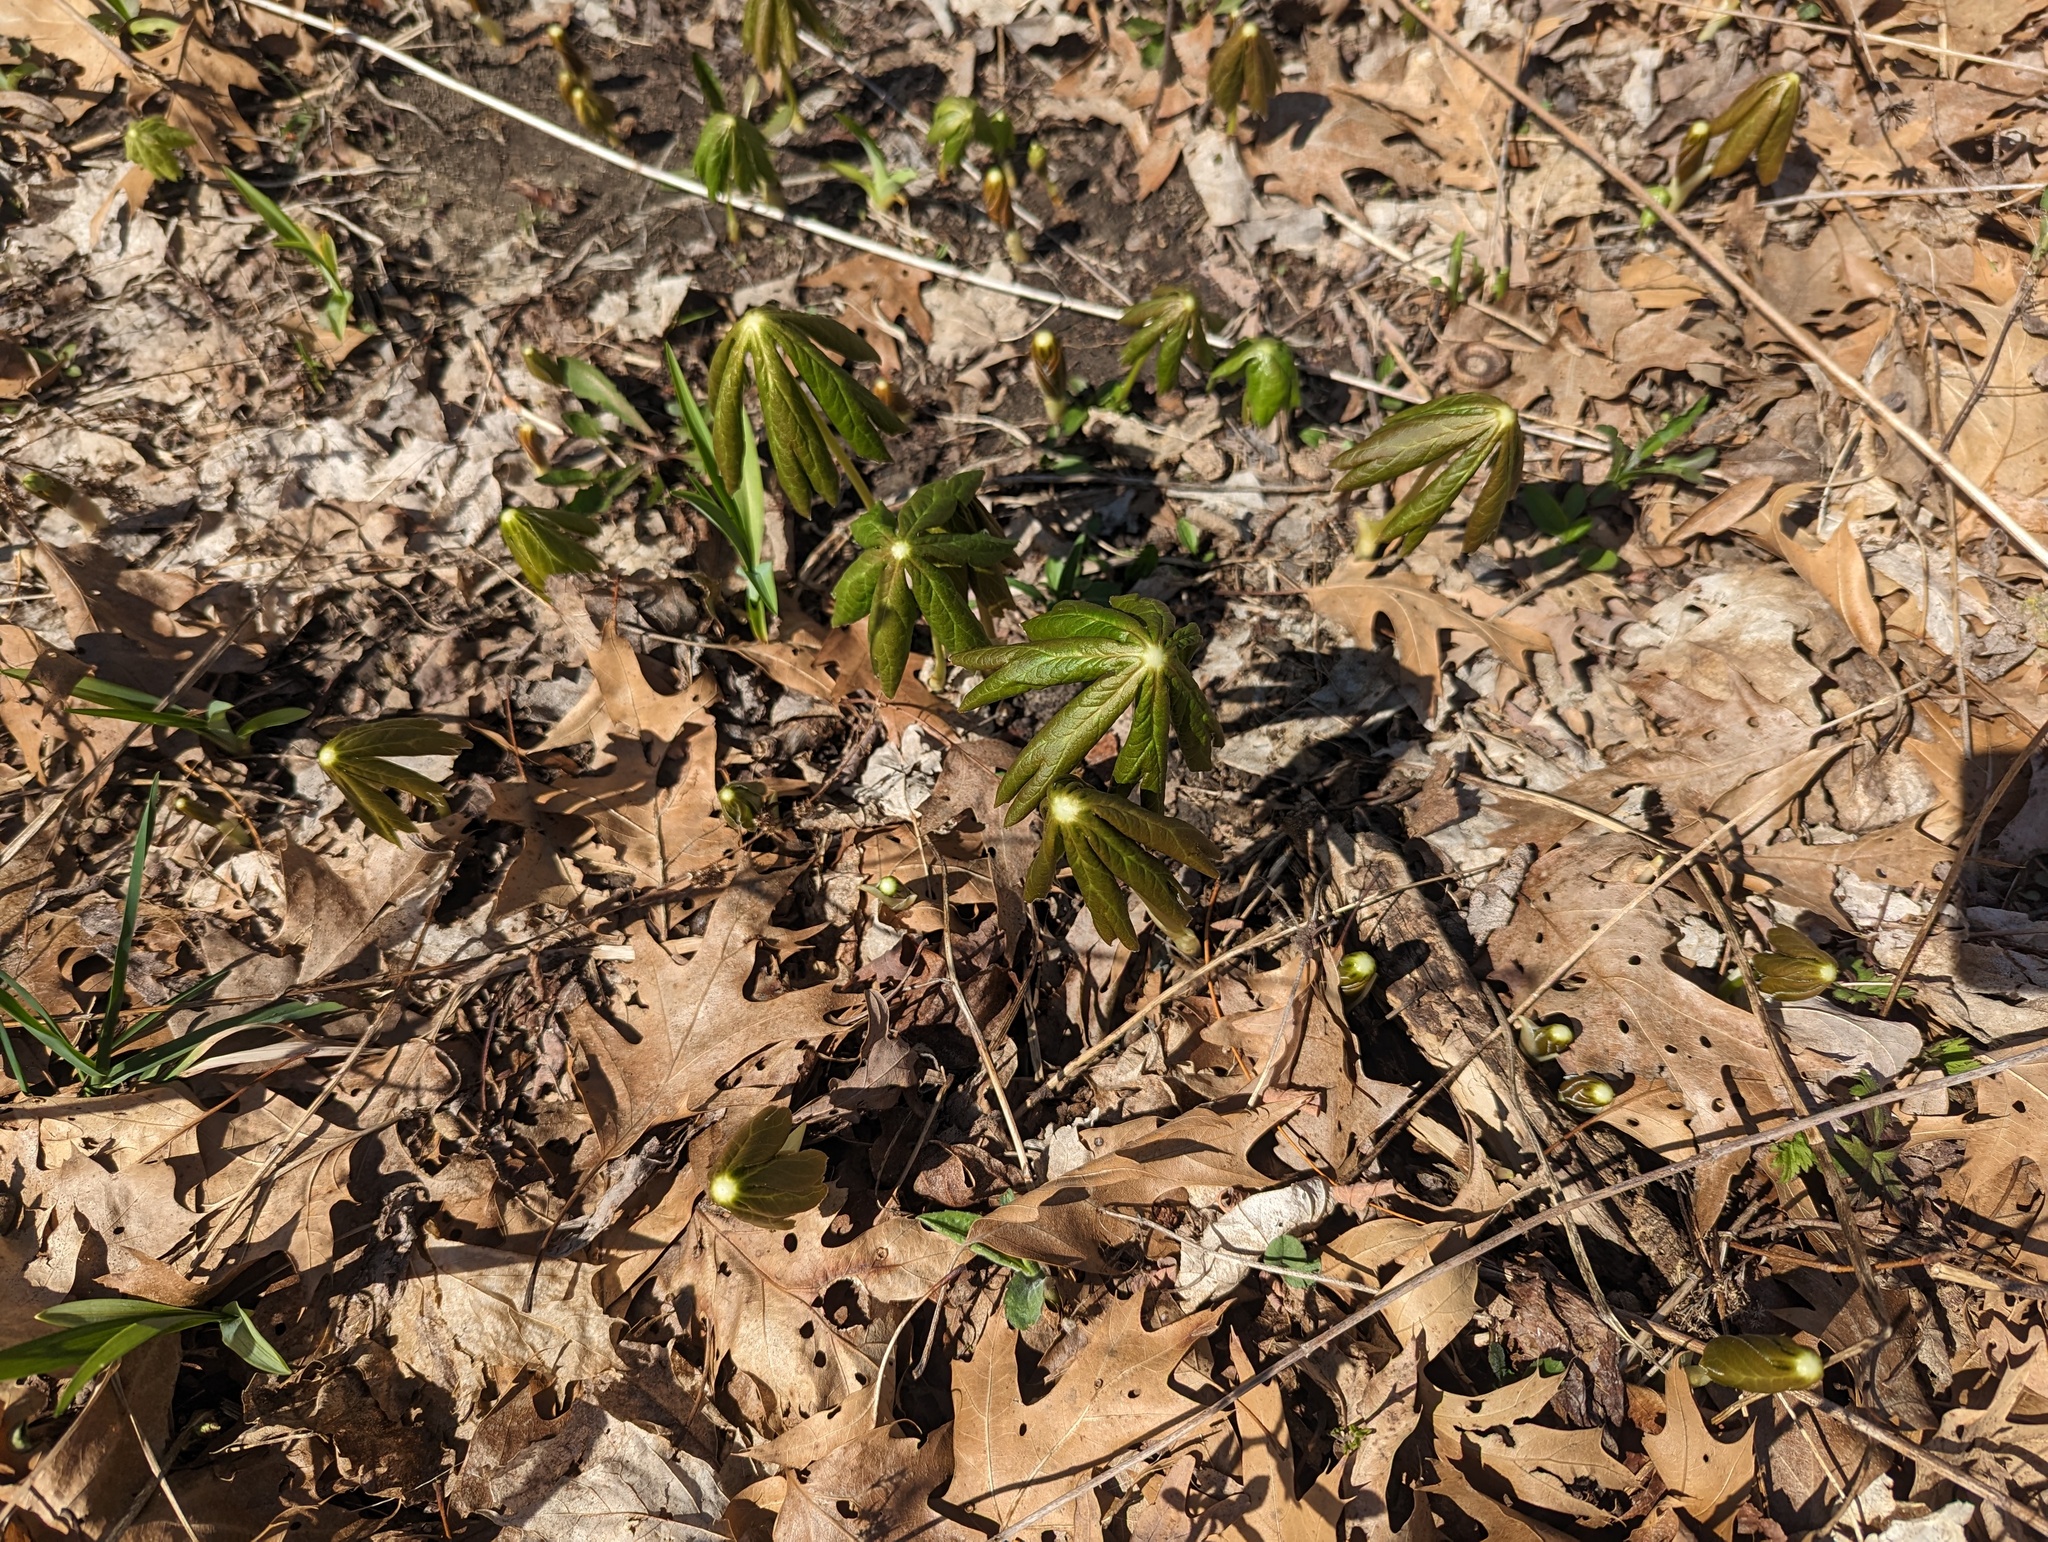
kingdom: Plantae
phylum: Tracheophyta
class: Magnoliopsida
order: Ranunculales
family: Berberidaceae
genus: Podophyllum
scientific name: Podophyllum peltatum
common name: Wild mandrake
